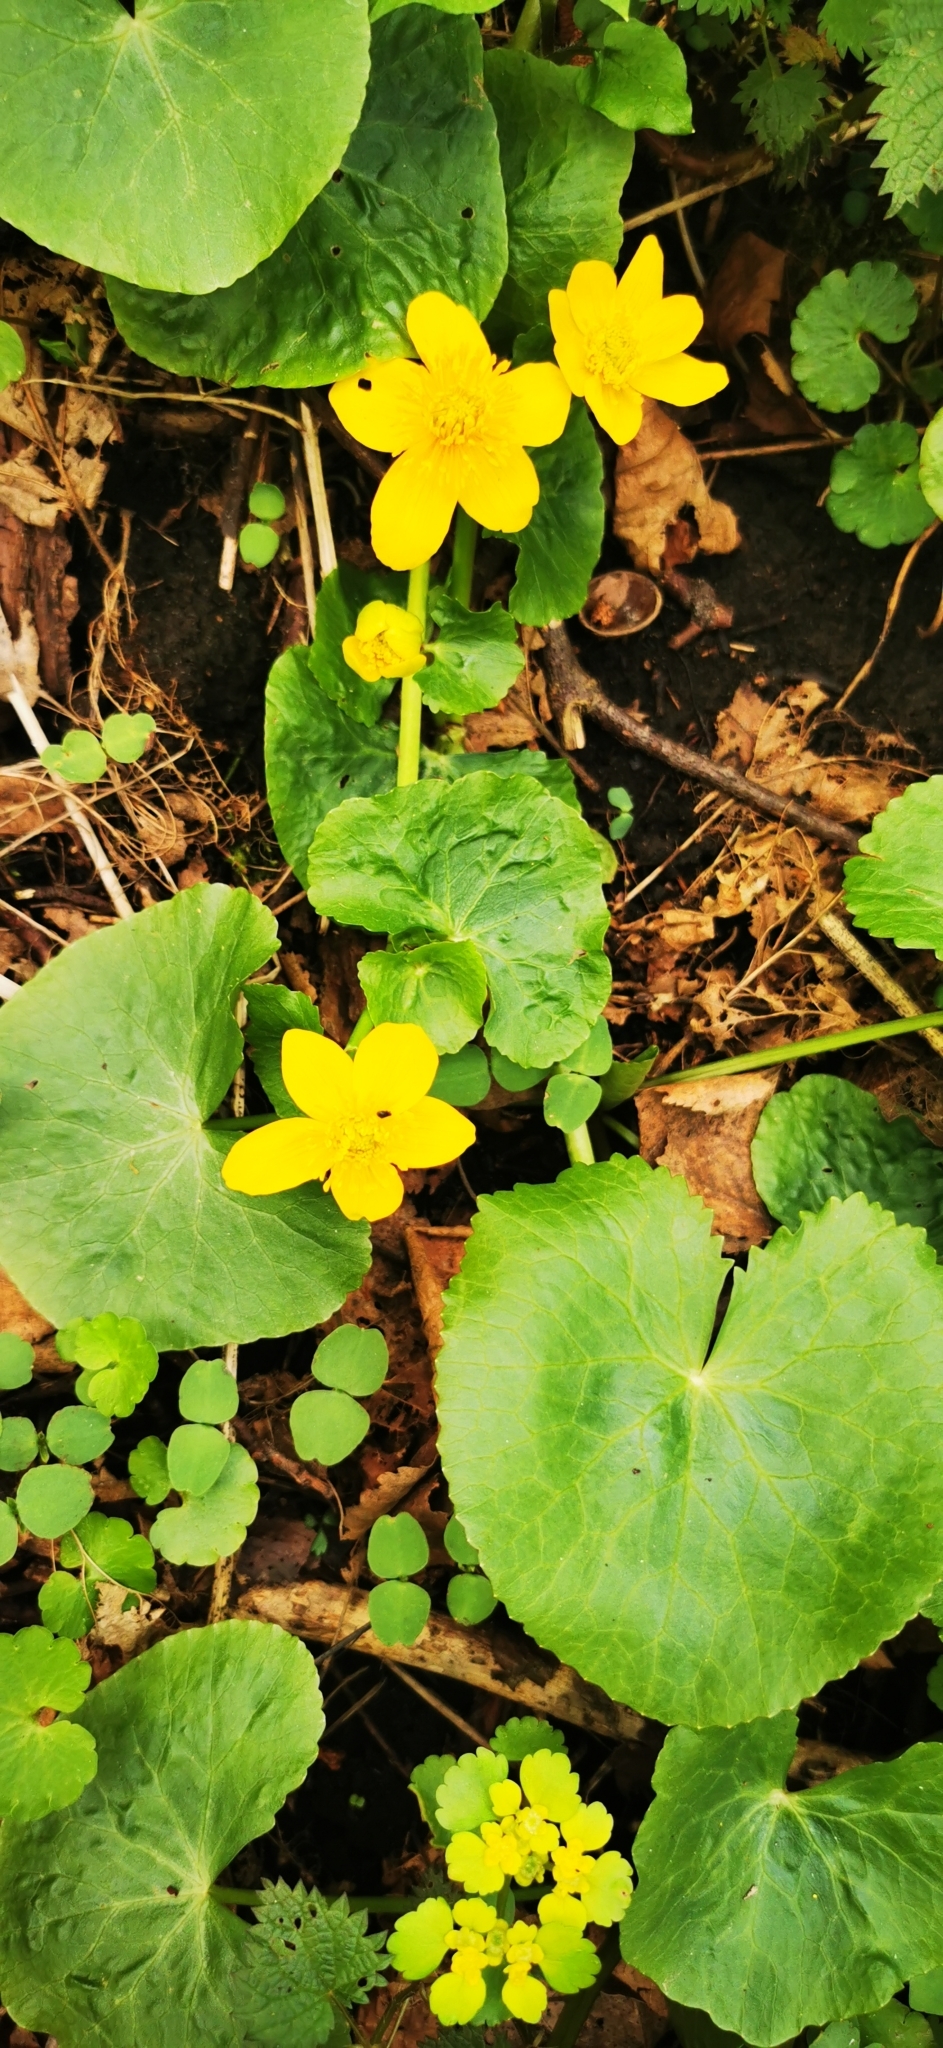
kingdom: Plantae
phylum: Tracheophyta
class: Magnoliopsida
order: Ranunculales
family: Ranunculaceae
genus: Caltha
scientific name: Caltha palustris
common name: Marsh marigold
